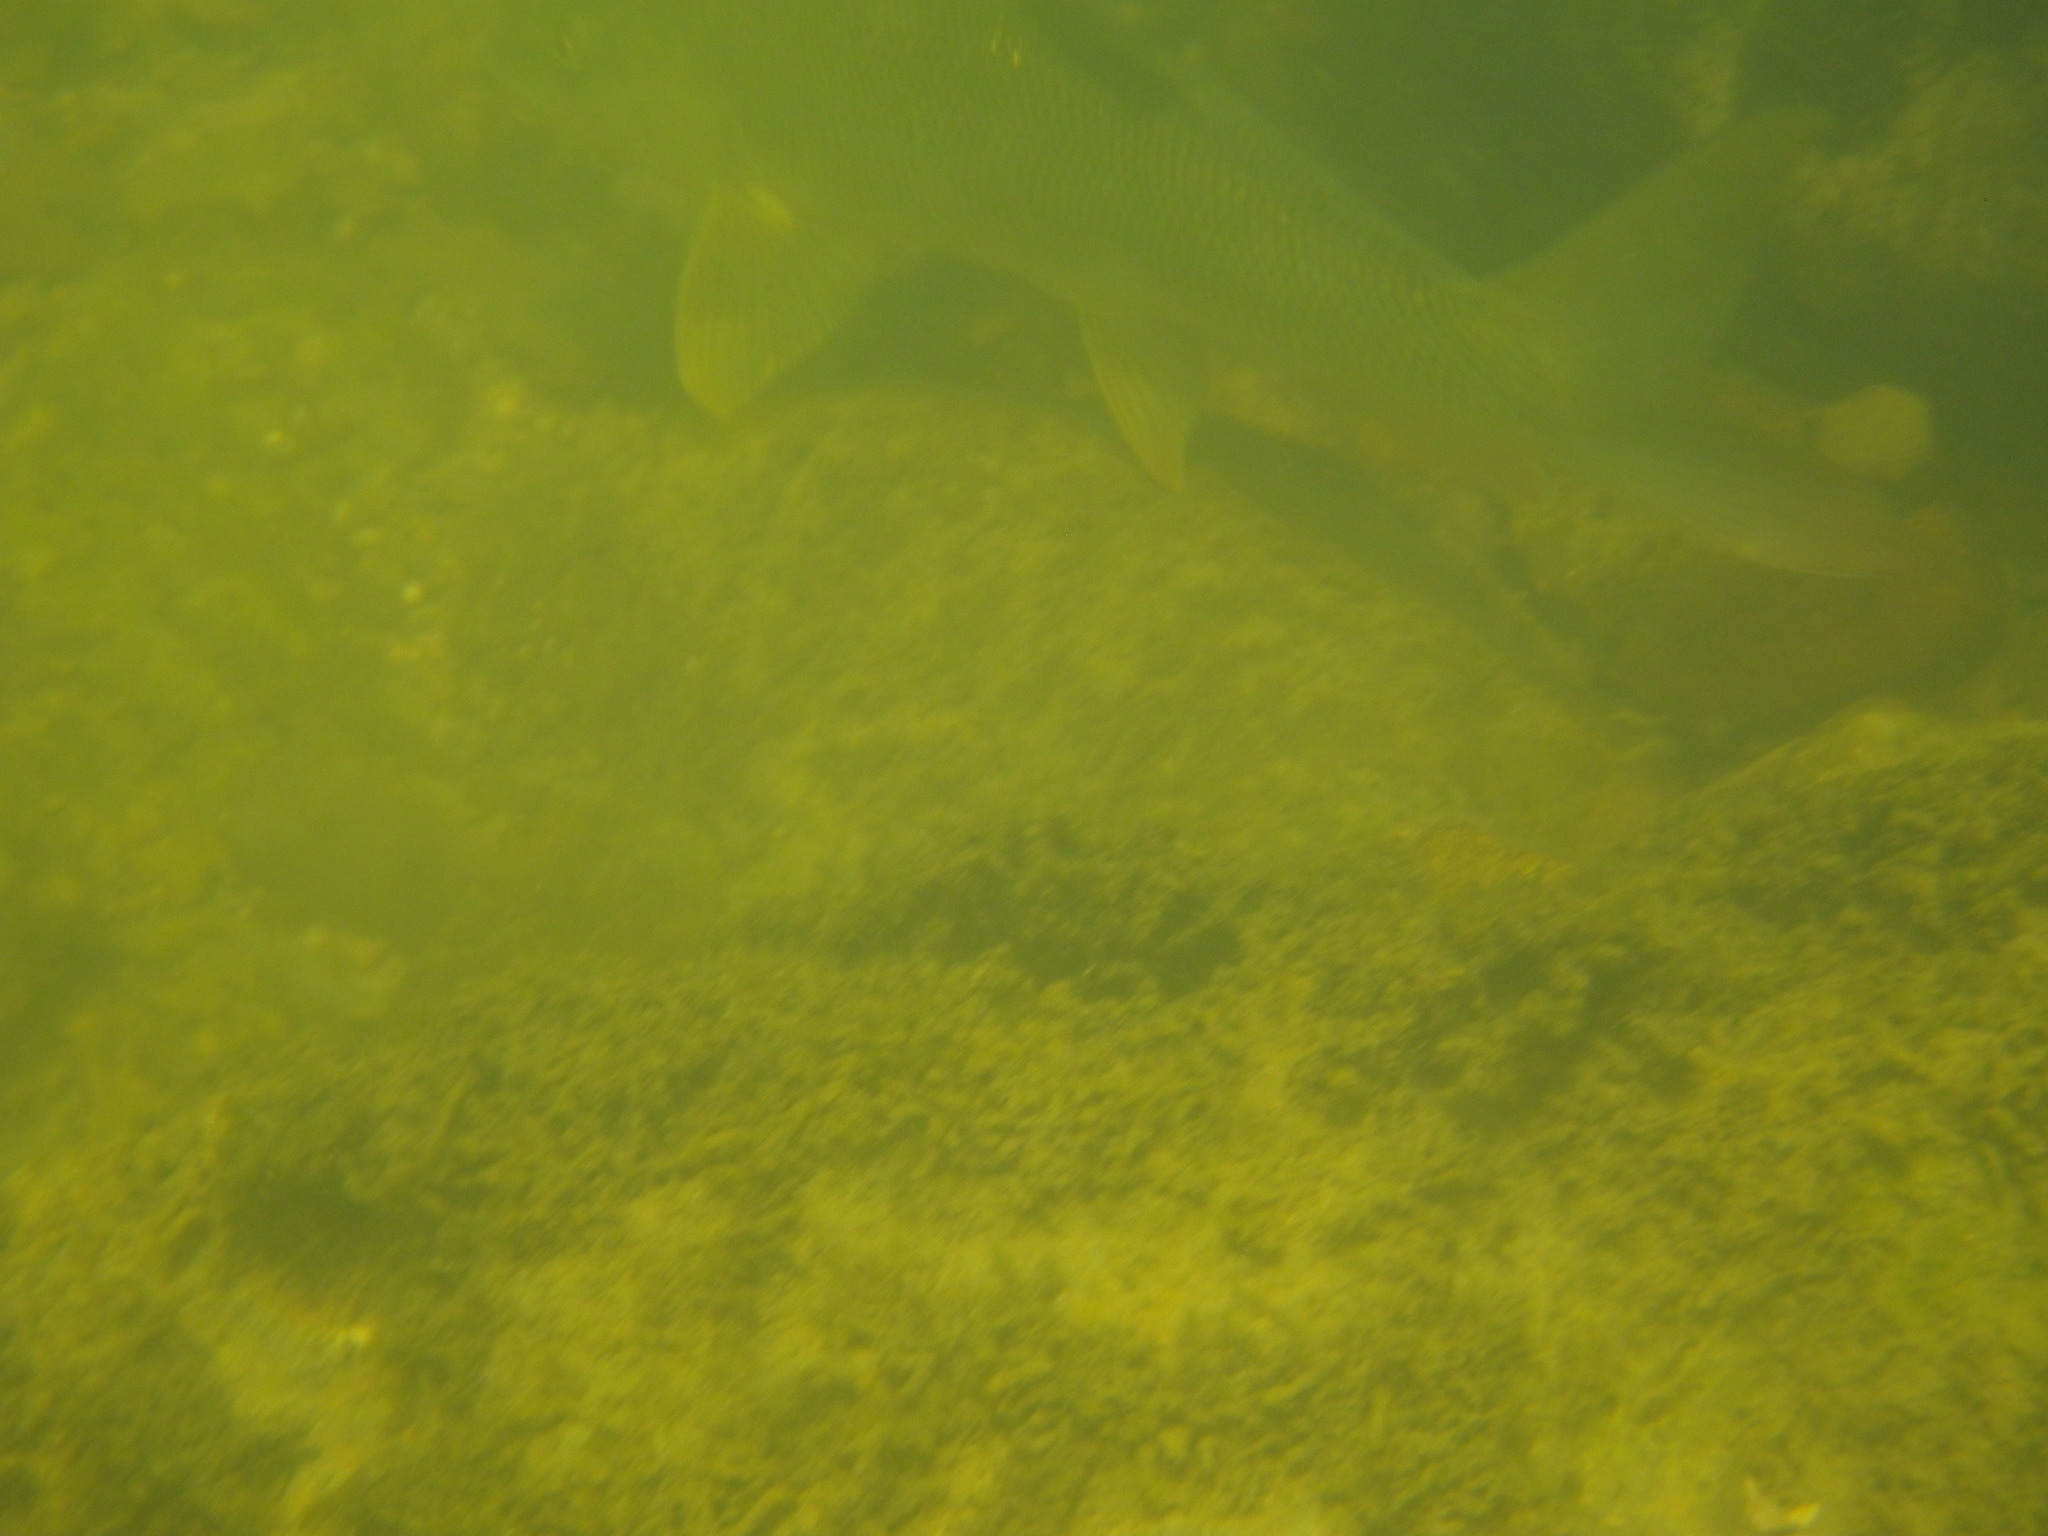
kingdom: Animalia
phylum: Chordata
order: Cypriniformes
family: Cyprinidae
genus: Barbus
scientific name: Barbus barbus
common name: Barbel
